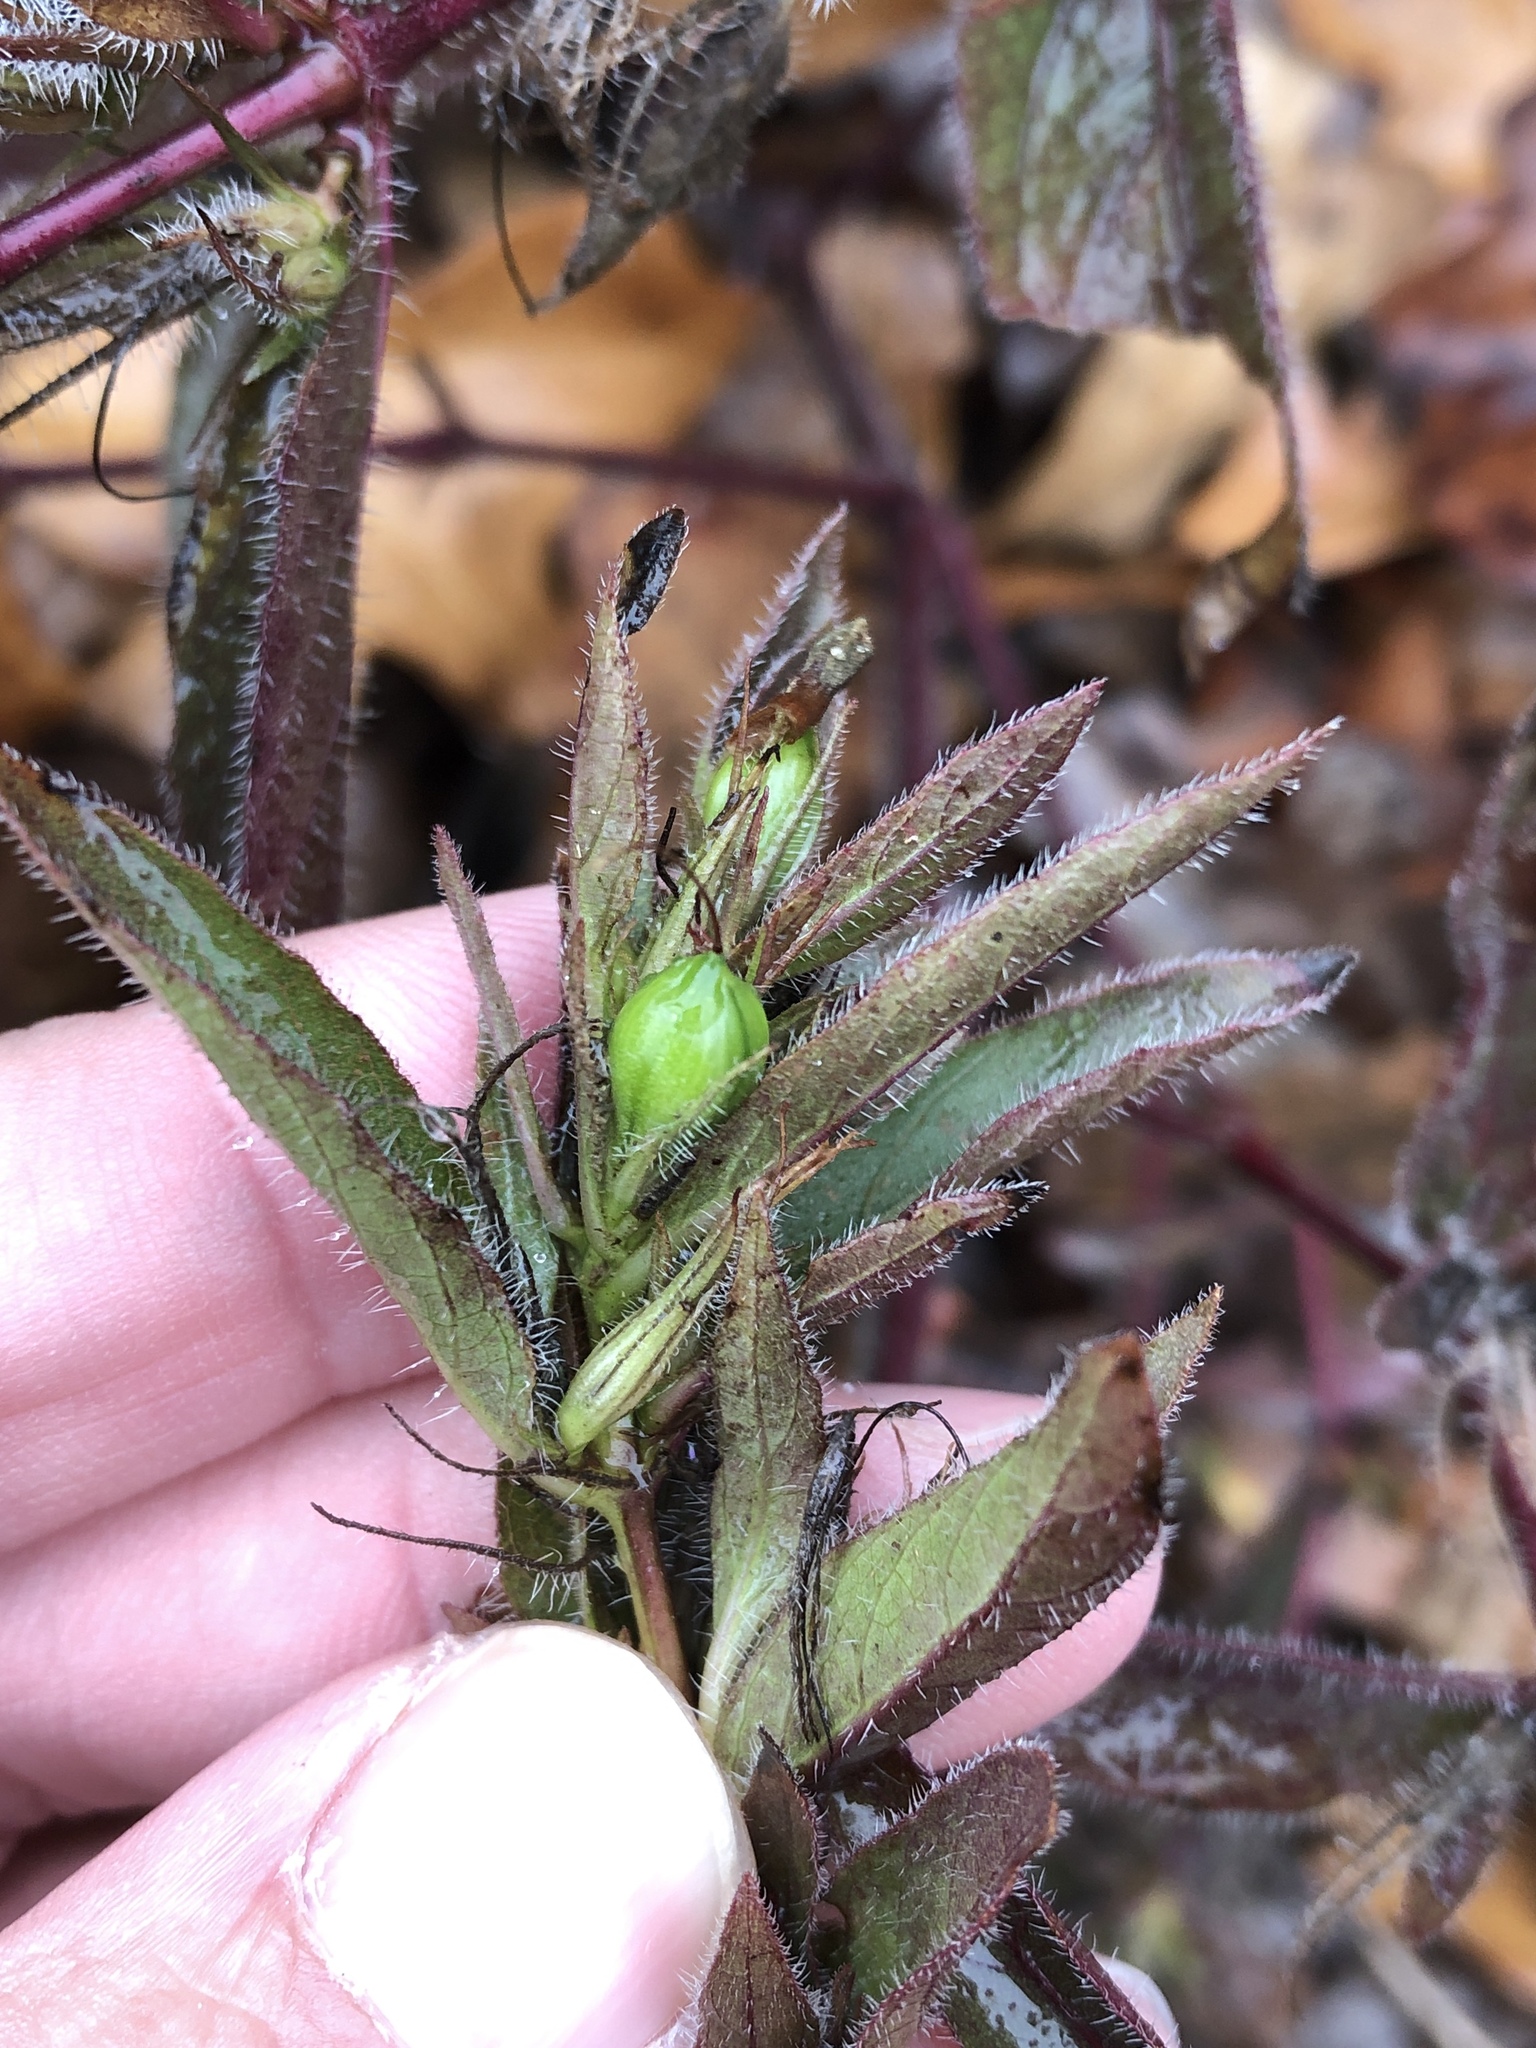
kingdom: Plantae
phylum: Tracheophyta
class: Magnoliopsida
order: Lamiales
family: Acanthaceae
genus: Ruellia
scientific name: Ruellia humilis
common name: Fringe-leaf ruellia
